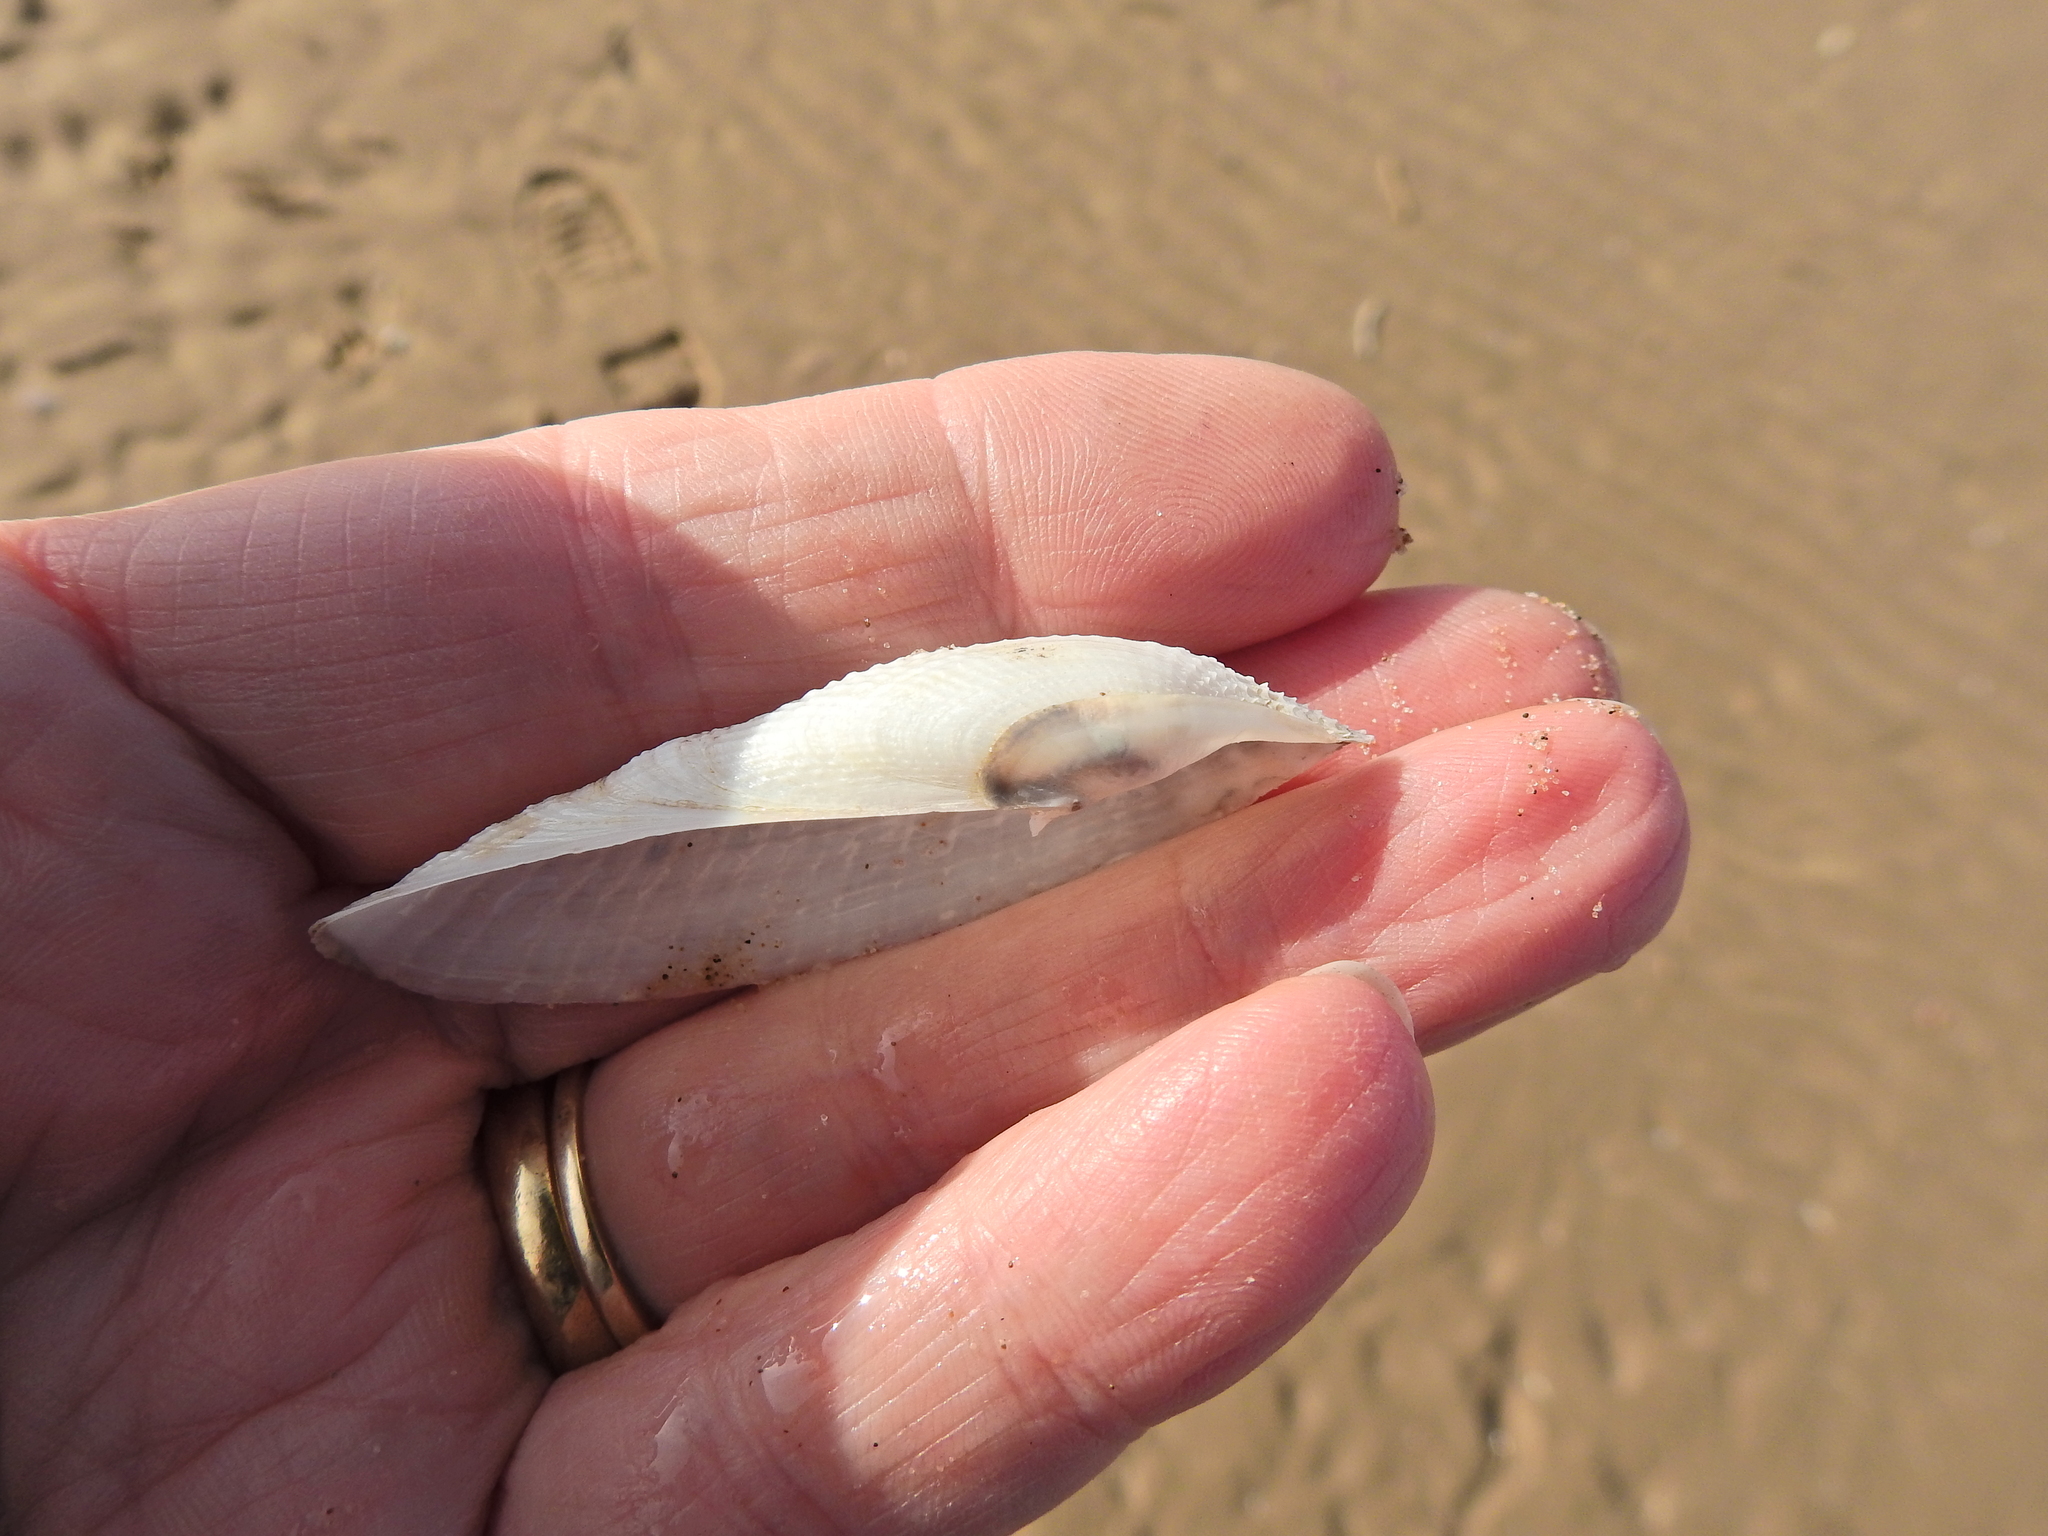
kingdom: Animalia
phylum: Mollusca
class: Bivalvia
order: Myida
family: Pholadidae
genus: Barnea
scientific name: Barnea candida
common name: White piddock
